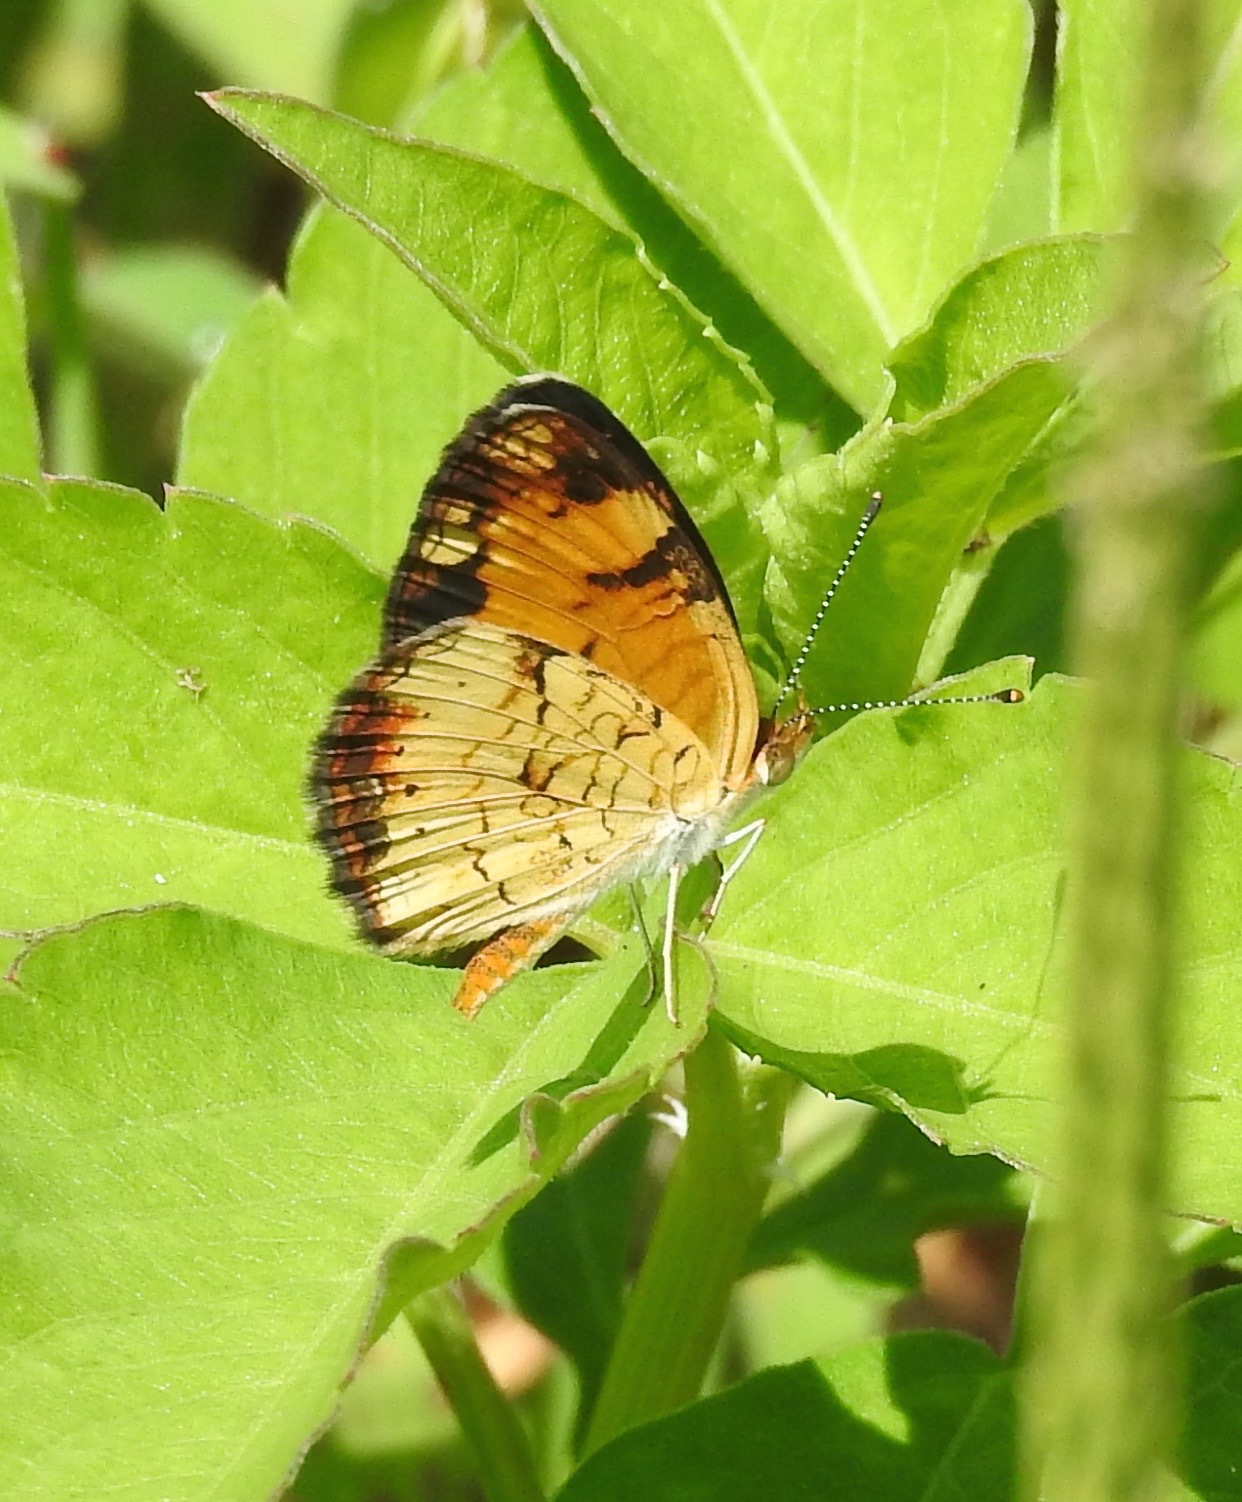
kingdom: Animalia
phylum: Arthropoda
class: Insecta
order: Lepidoptera
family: Nymphalidae
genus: Phyciodes
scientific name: Phyciodes tharos
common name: Pearl crescent
